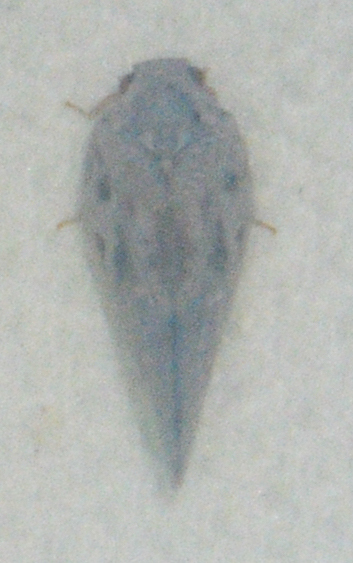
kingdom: Animalia
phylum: Arthropoda
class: Insecta
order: Hemiptera
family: Flatidae
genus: Metcalfa
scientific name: Metcalfa pruinosa
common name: Citrus flatid planthopper
